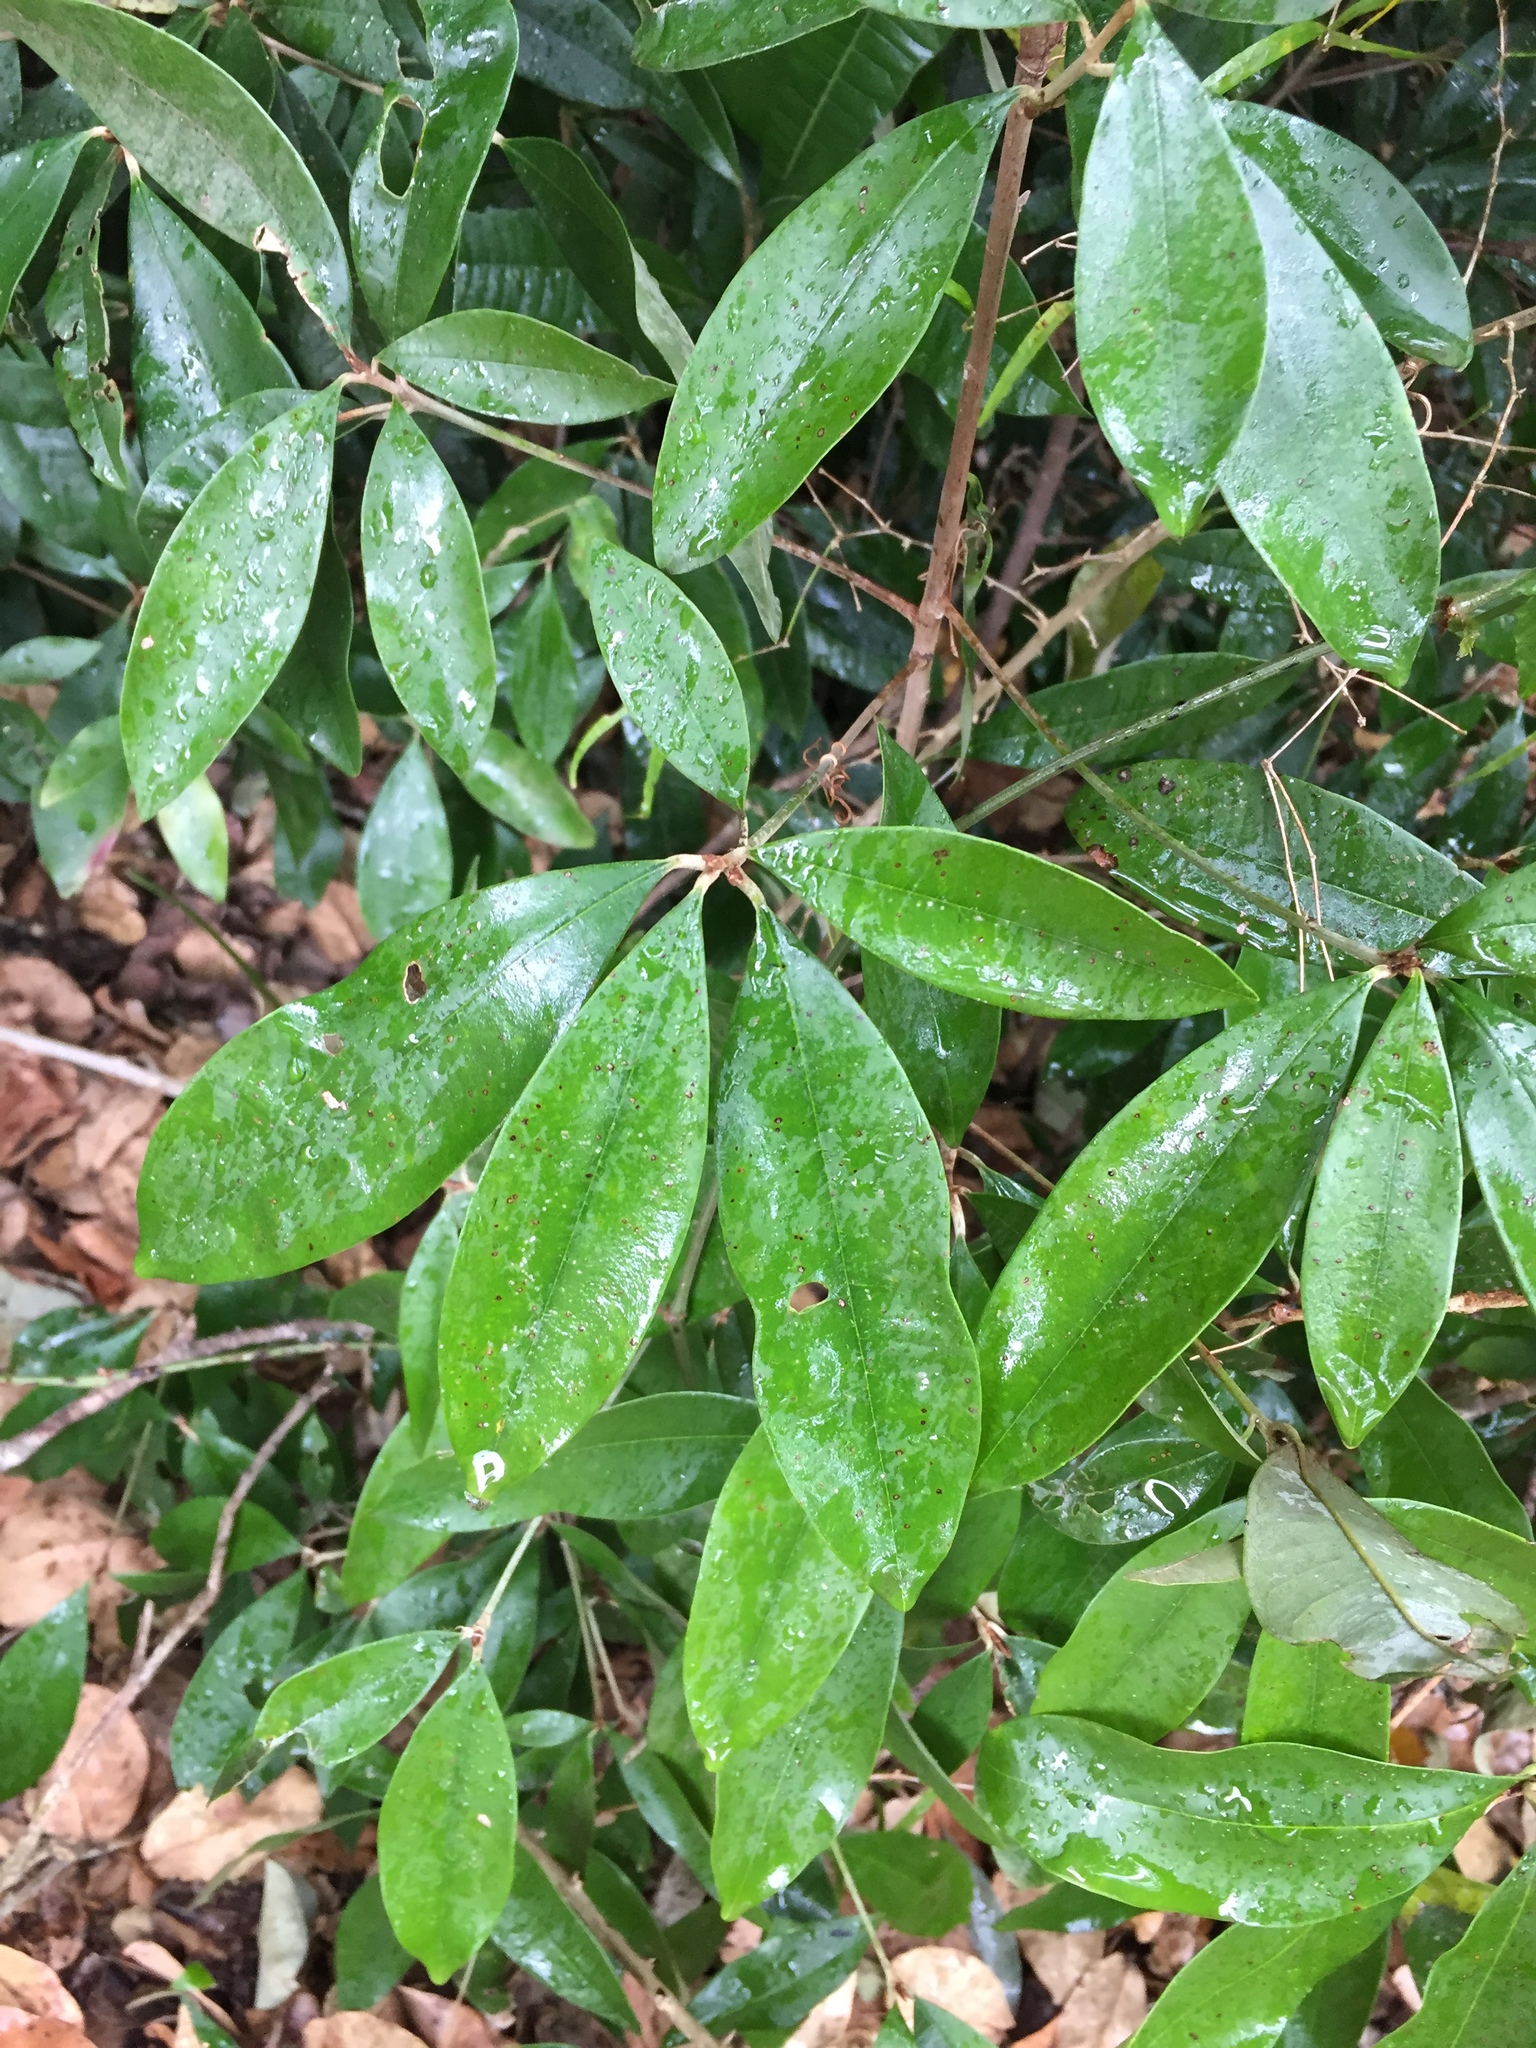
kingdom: Plantae
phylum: Tracheophyta
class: Magnoliopsida
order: Ericales
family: Sapotaceae
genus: Englerophytum
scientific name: Englerophytum natalense
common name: Silver-leaved milkplum
